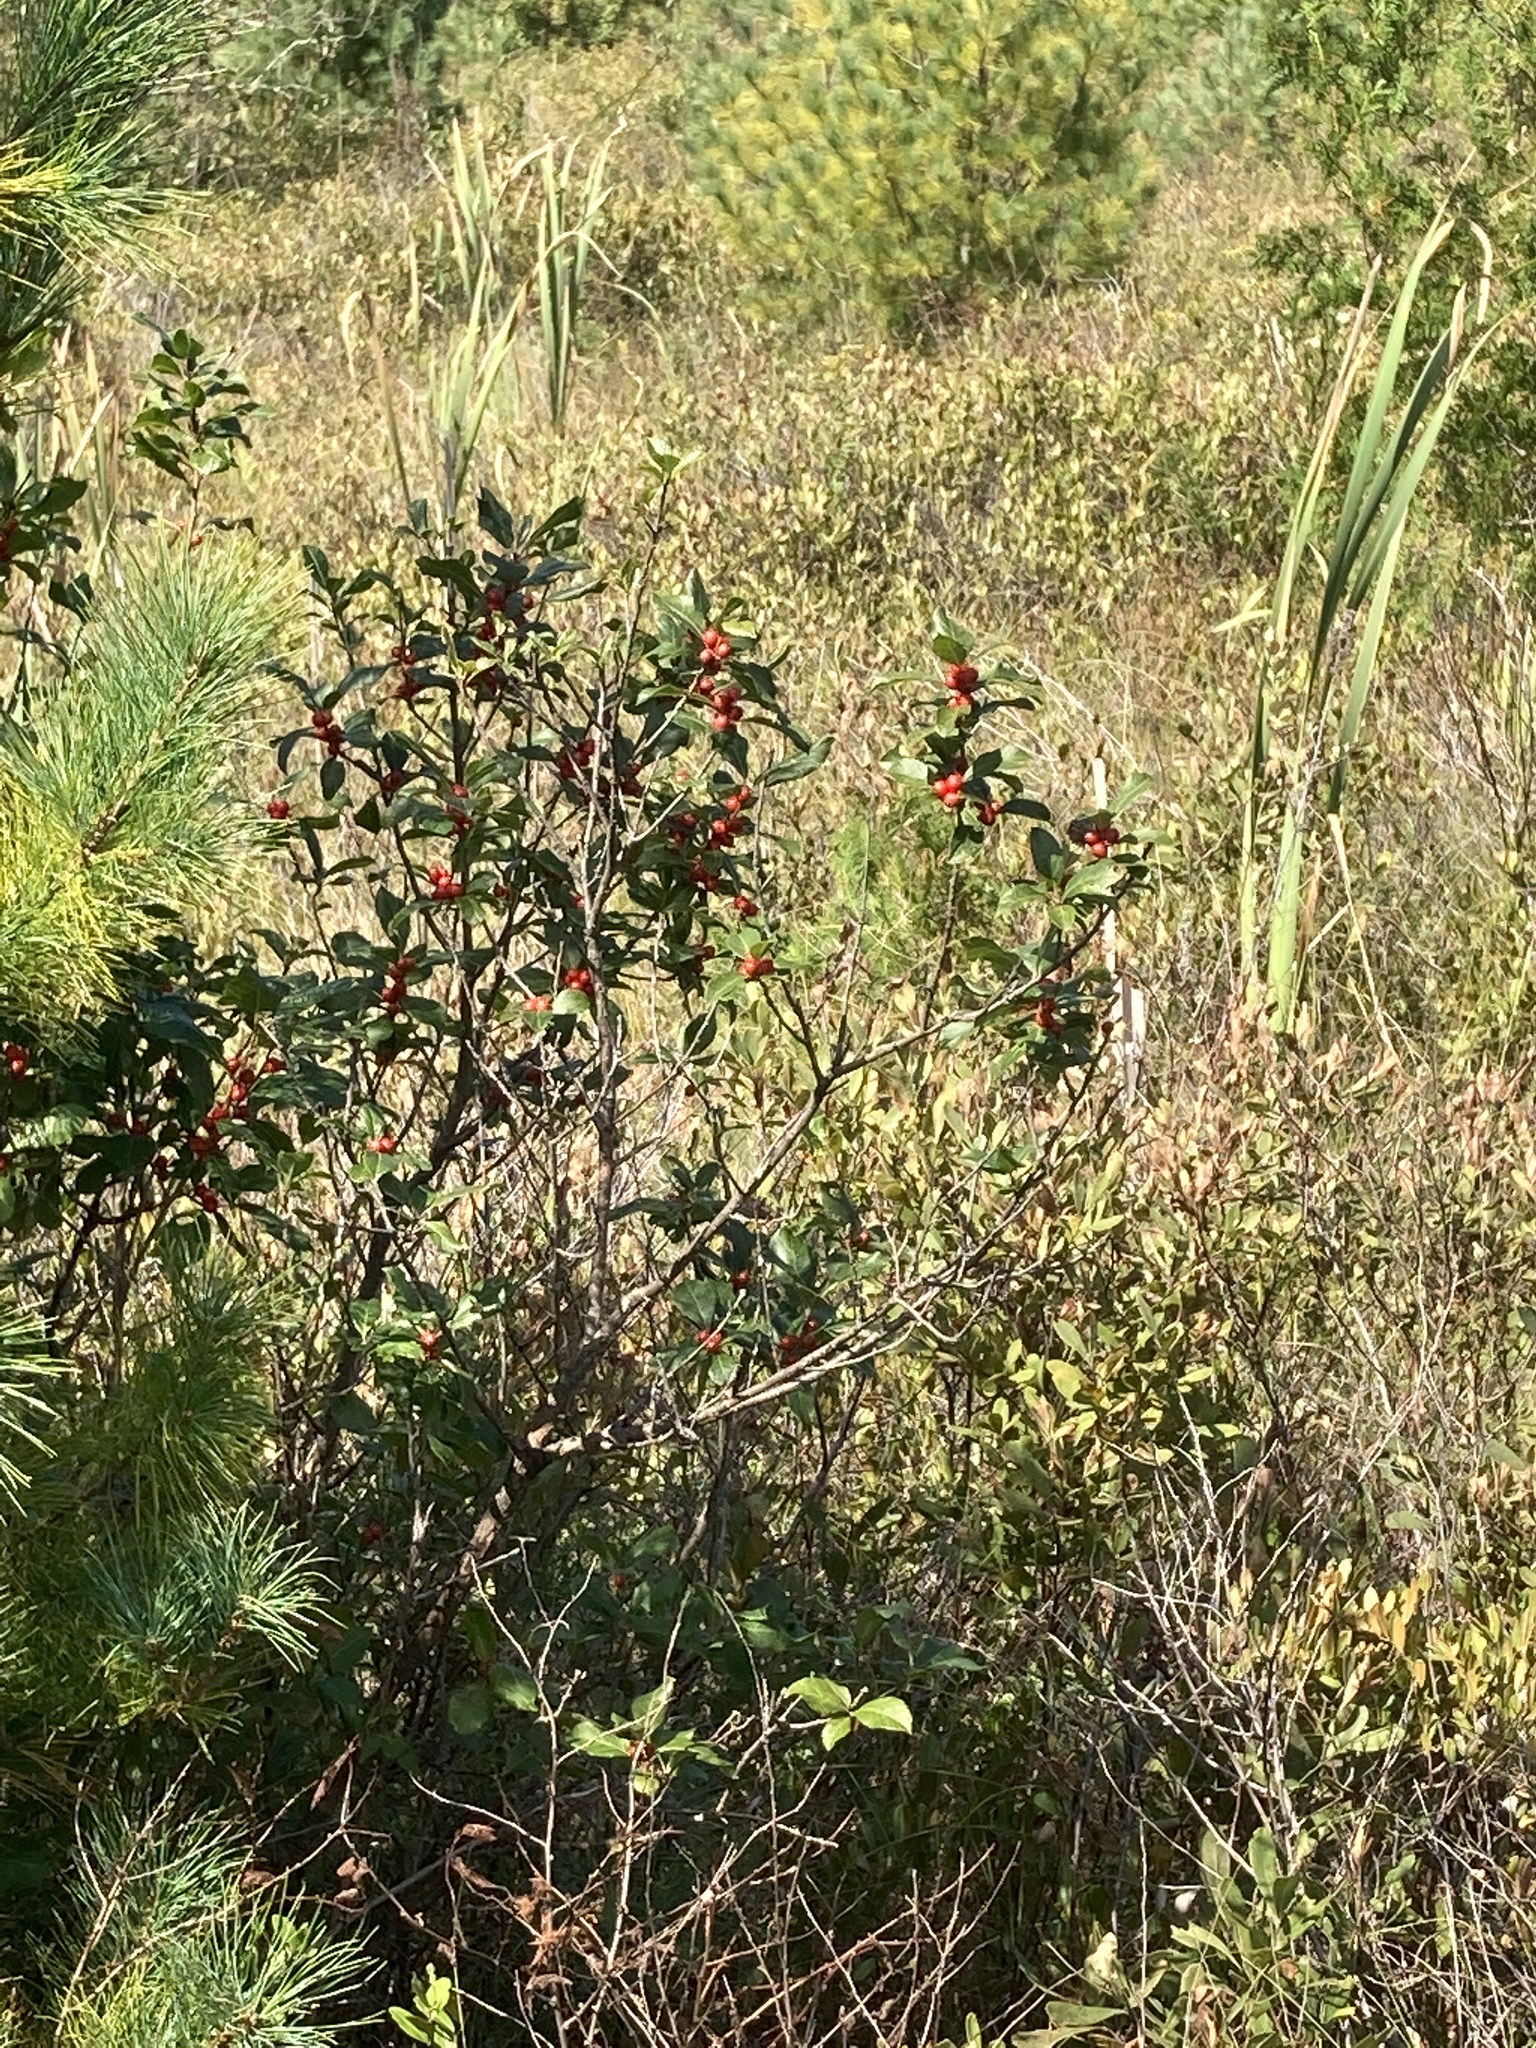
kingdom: Plantae
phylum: Tracheophyta
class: Magnoliopsida
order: Aquifoliales
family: Aquifoliaceae
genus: Ilex
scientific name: Ilex verticillata
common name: Virginia winterberry
